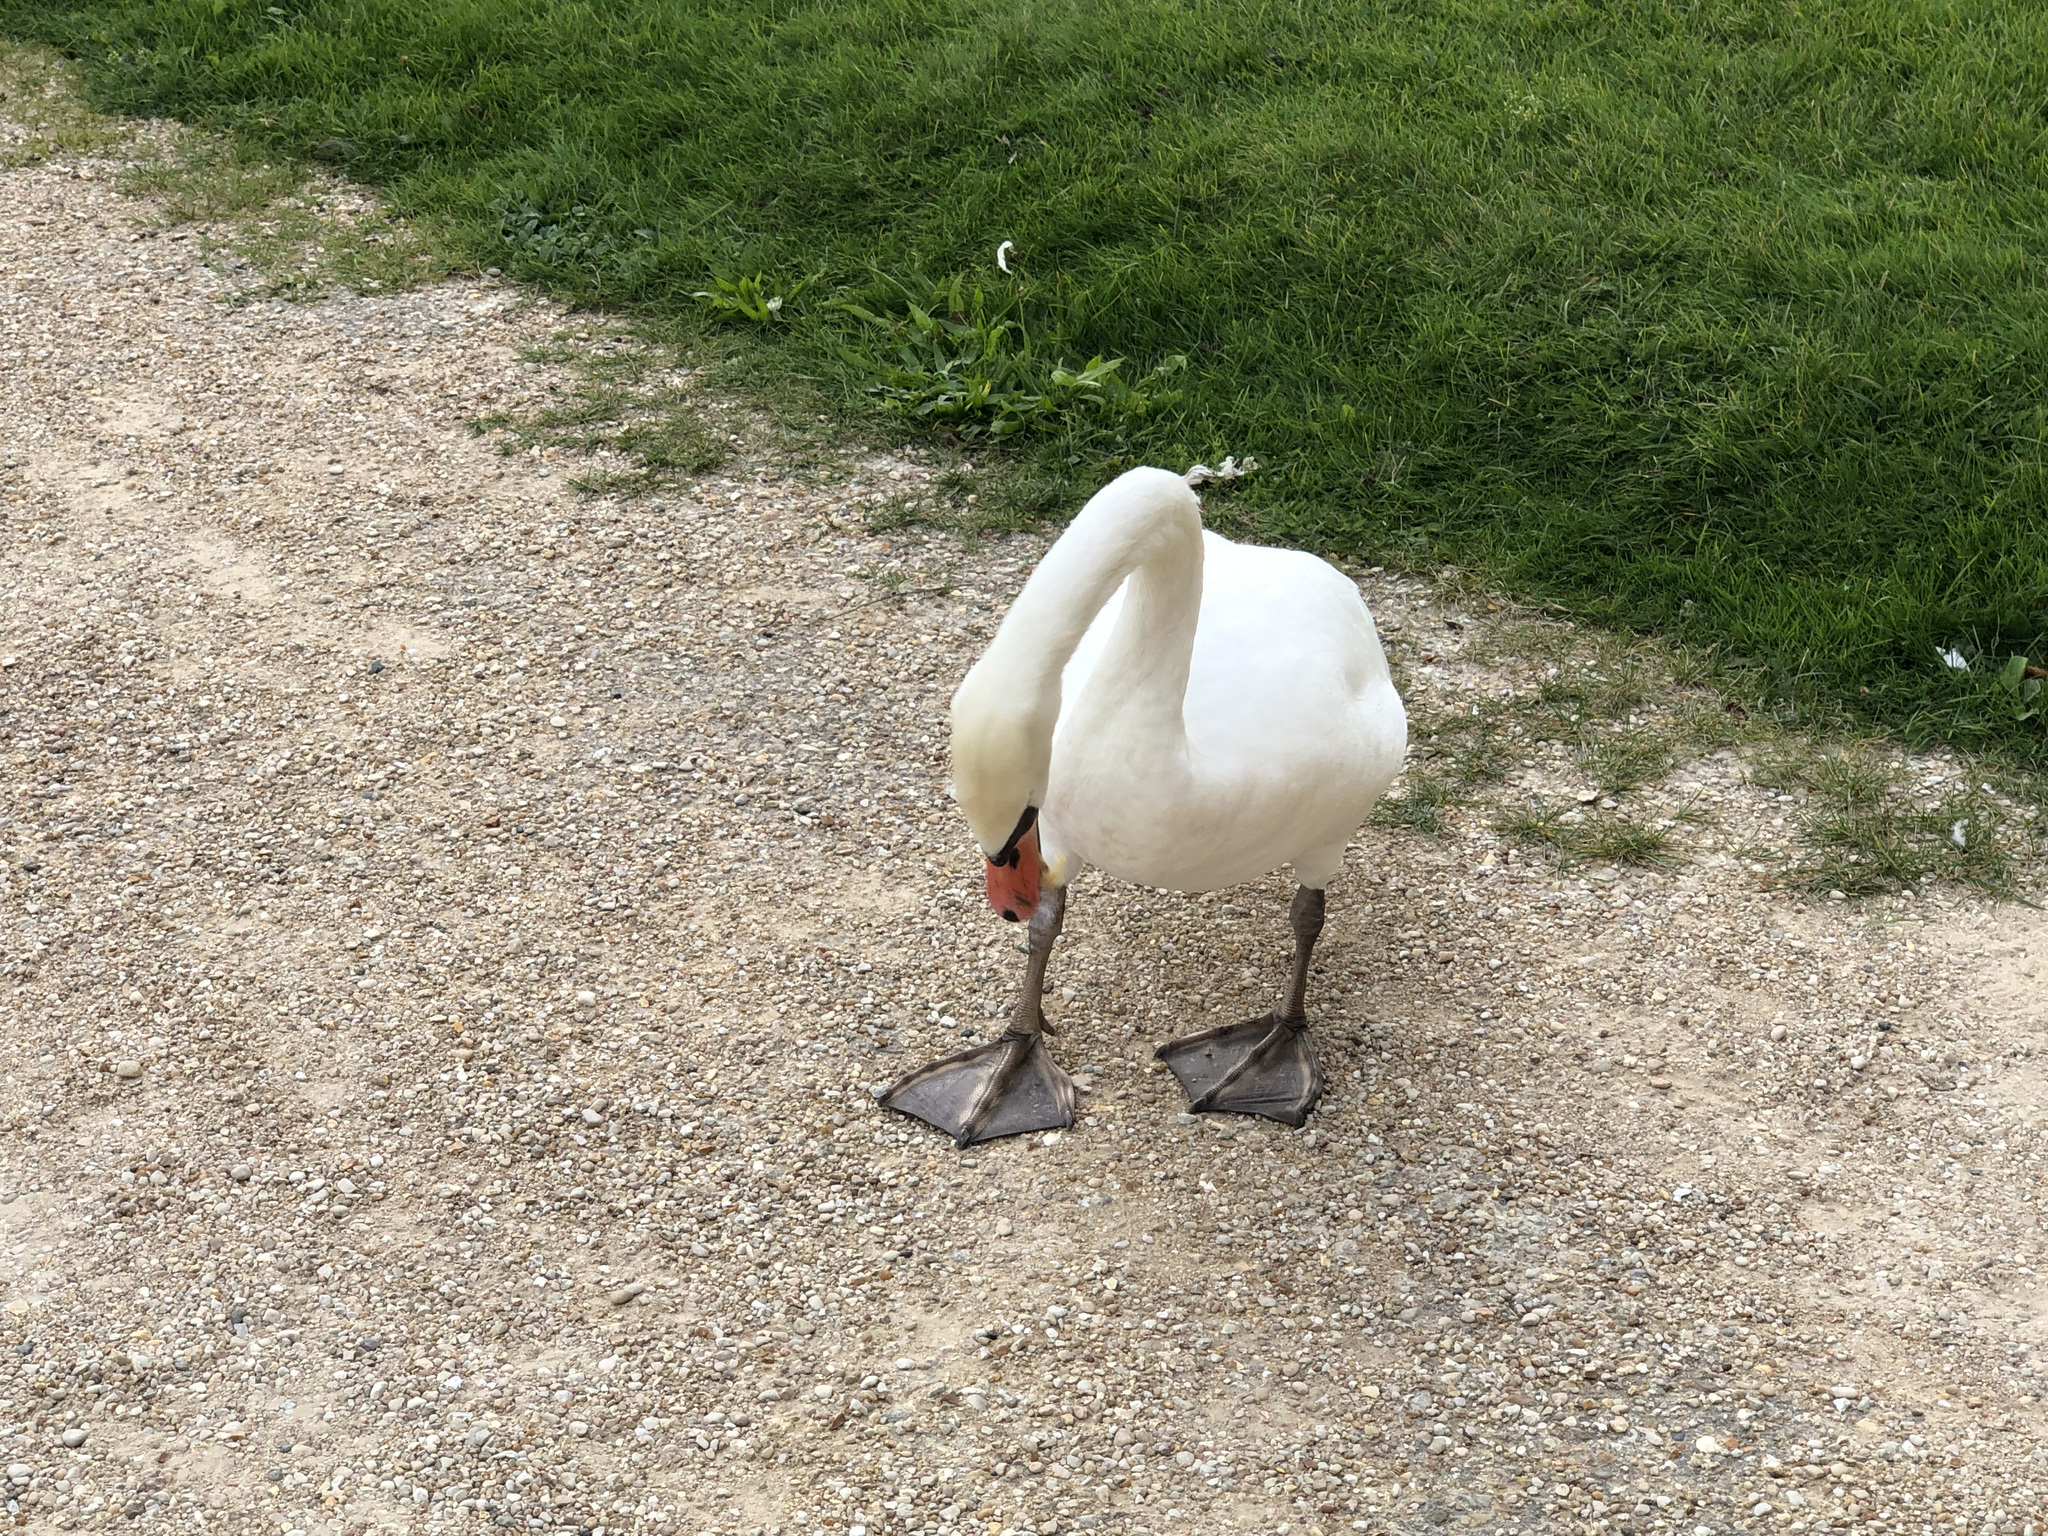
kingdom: Animalia
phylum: Chordata
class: Aves
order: Anseriformes
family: Anatidae
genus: Cygnus
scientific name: Cygnus olor
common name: Mute swan
